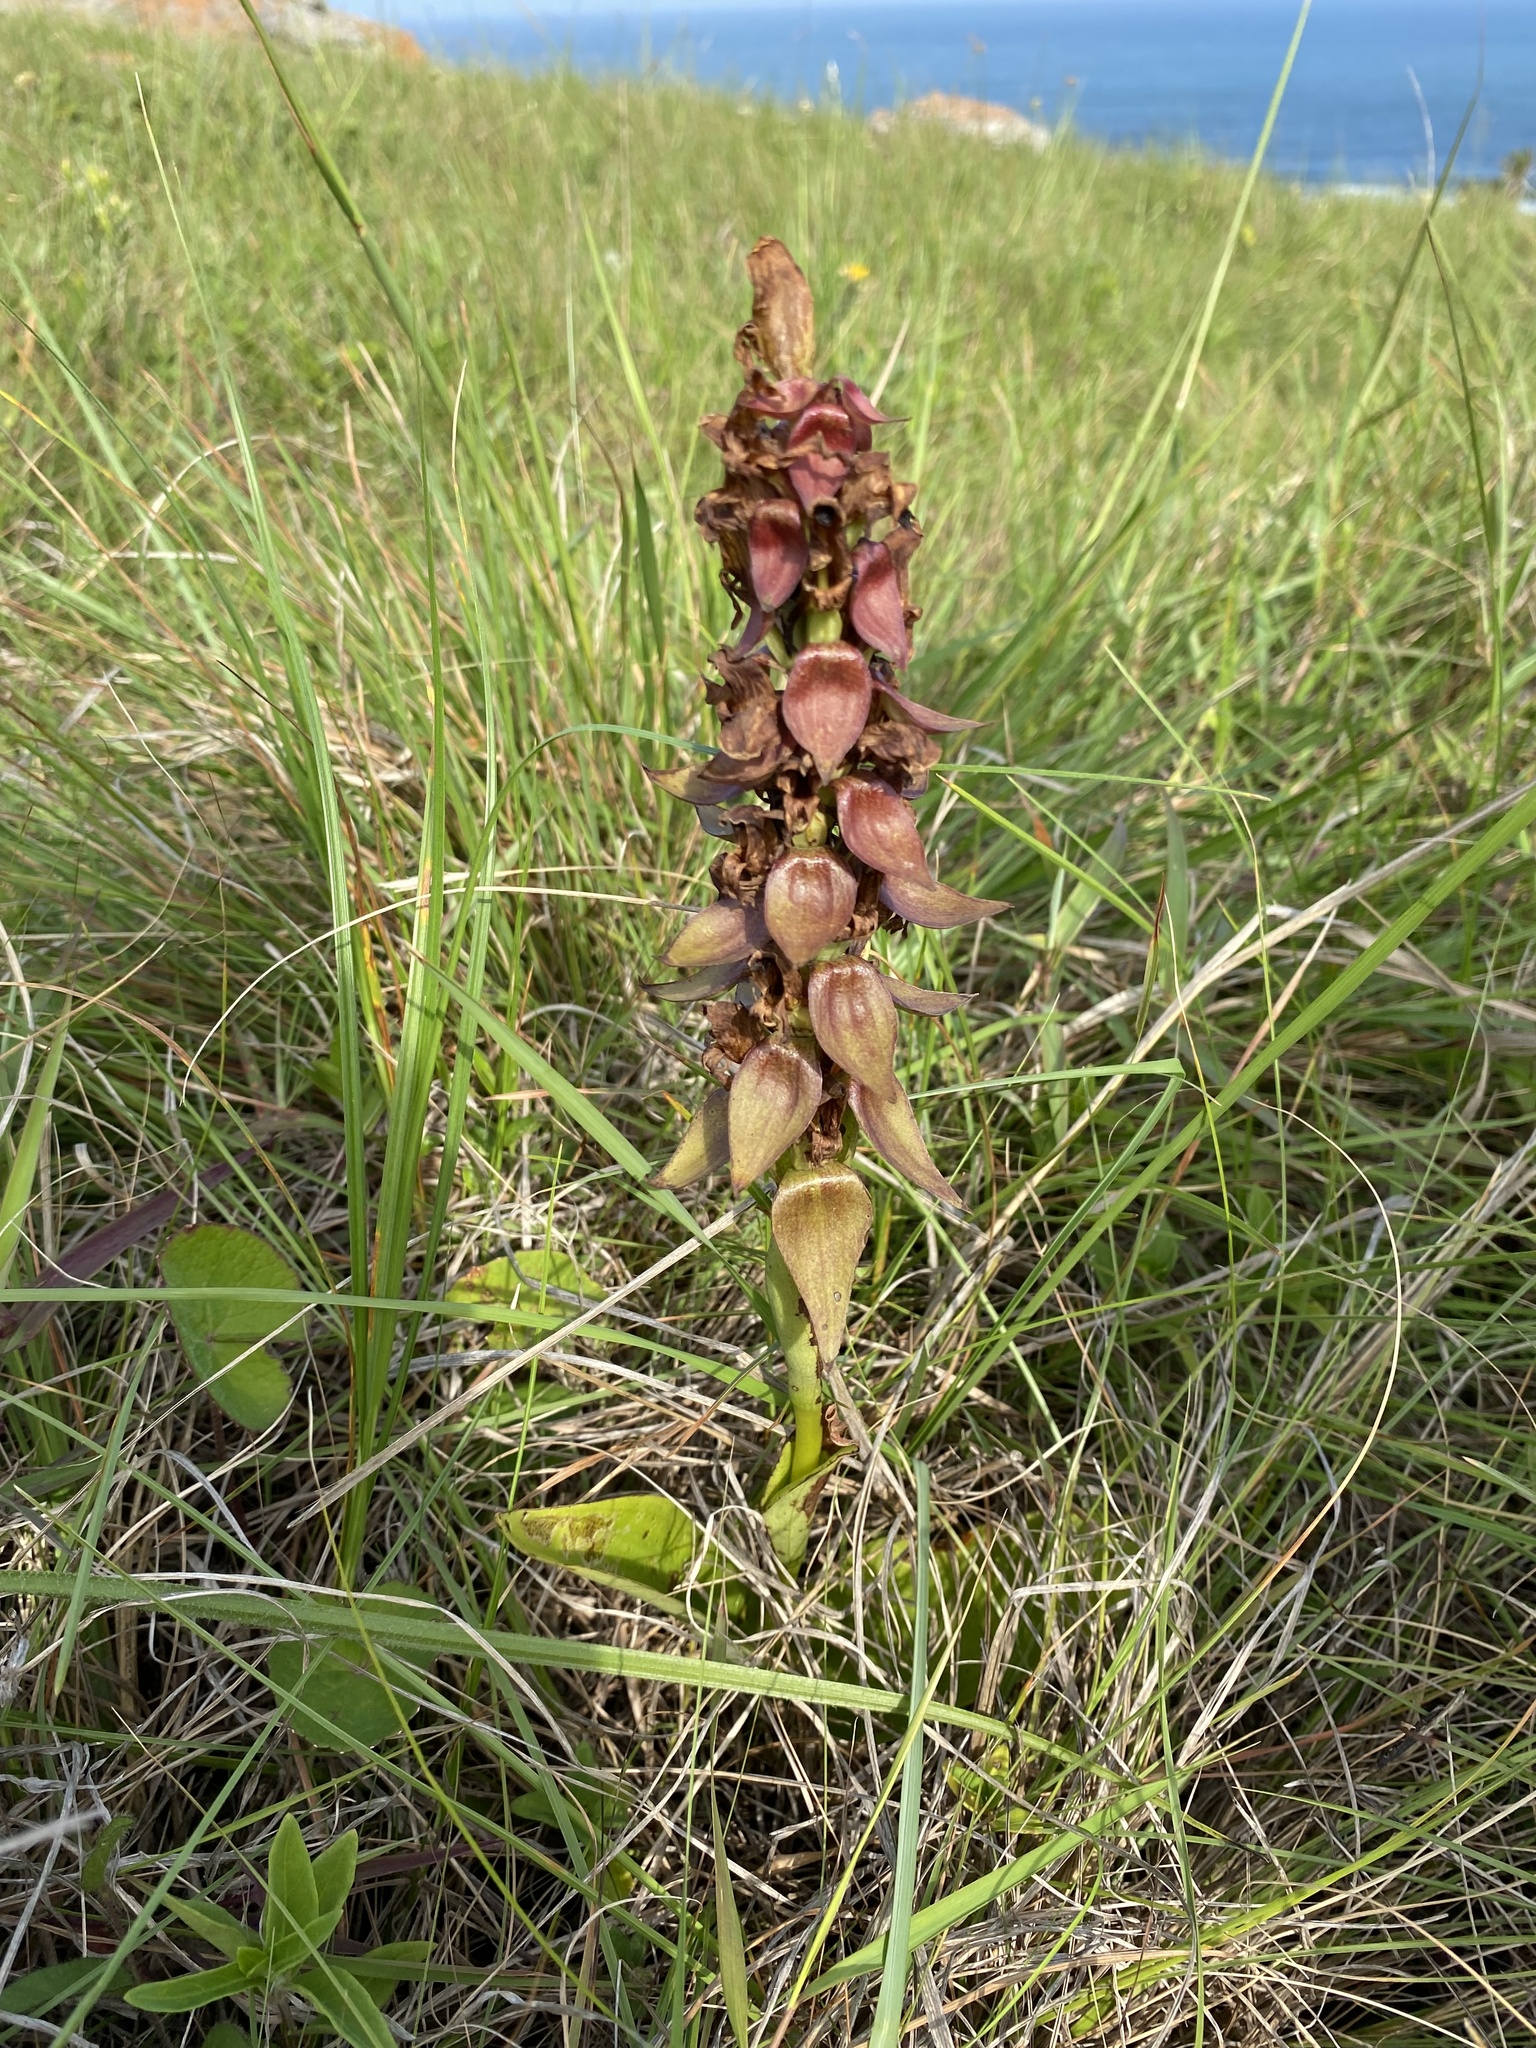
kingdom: Plantae
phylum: Tracheophyta
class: Liliopsida
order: Asparagales
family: Orchidaceae
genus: Satyrium
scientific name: Satyrium sphaerocarpum
